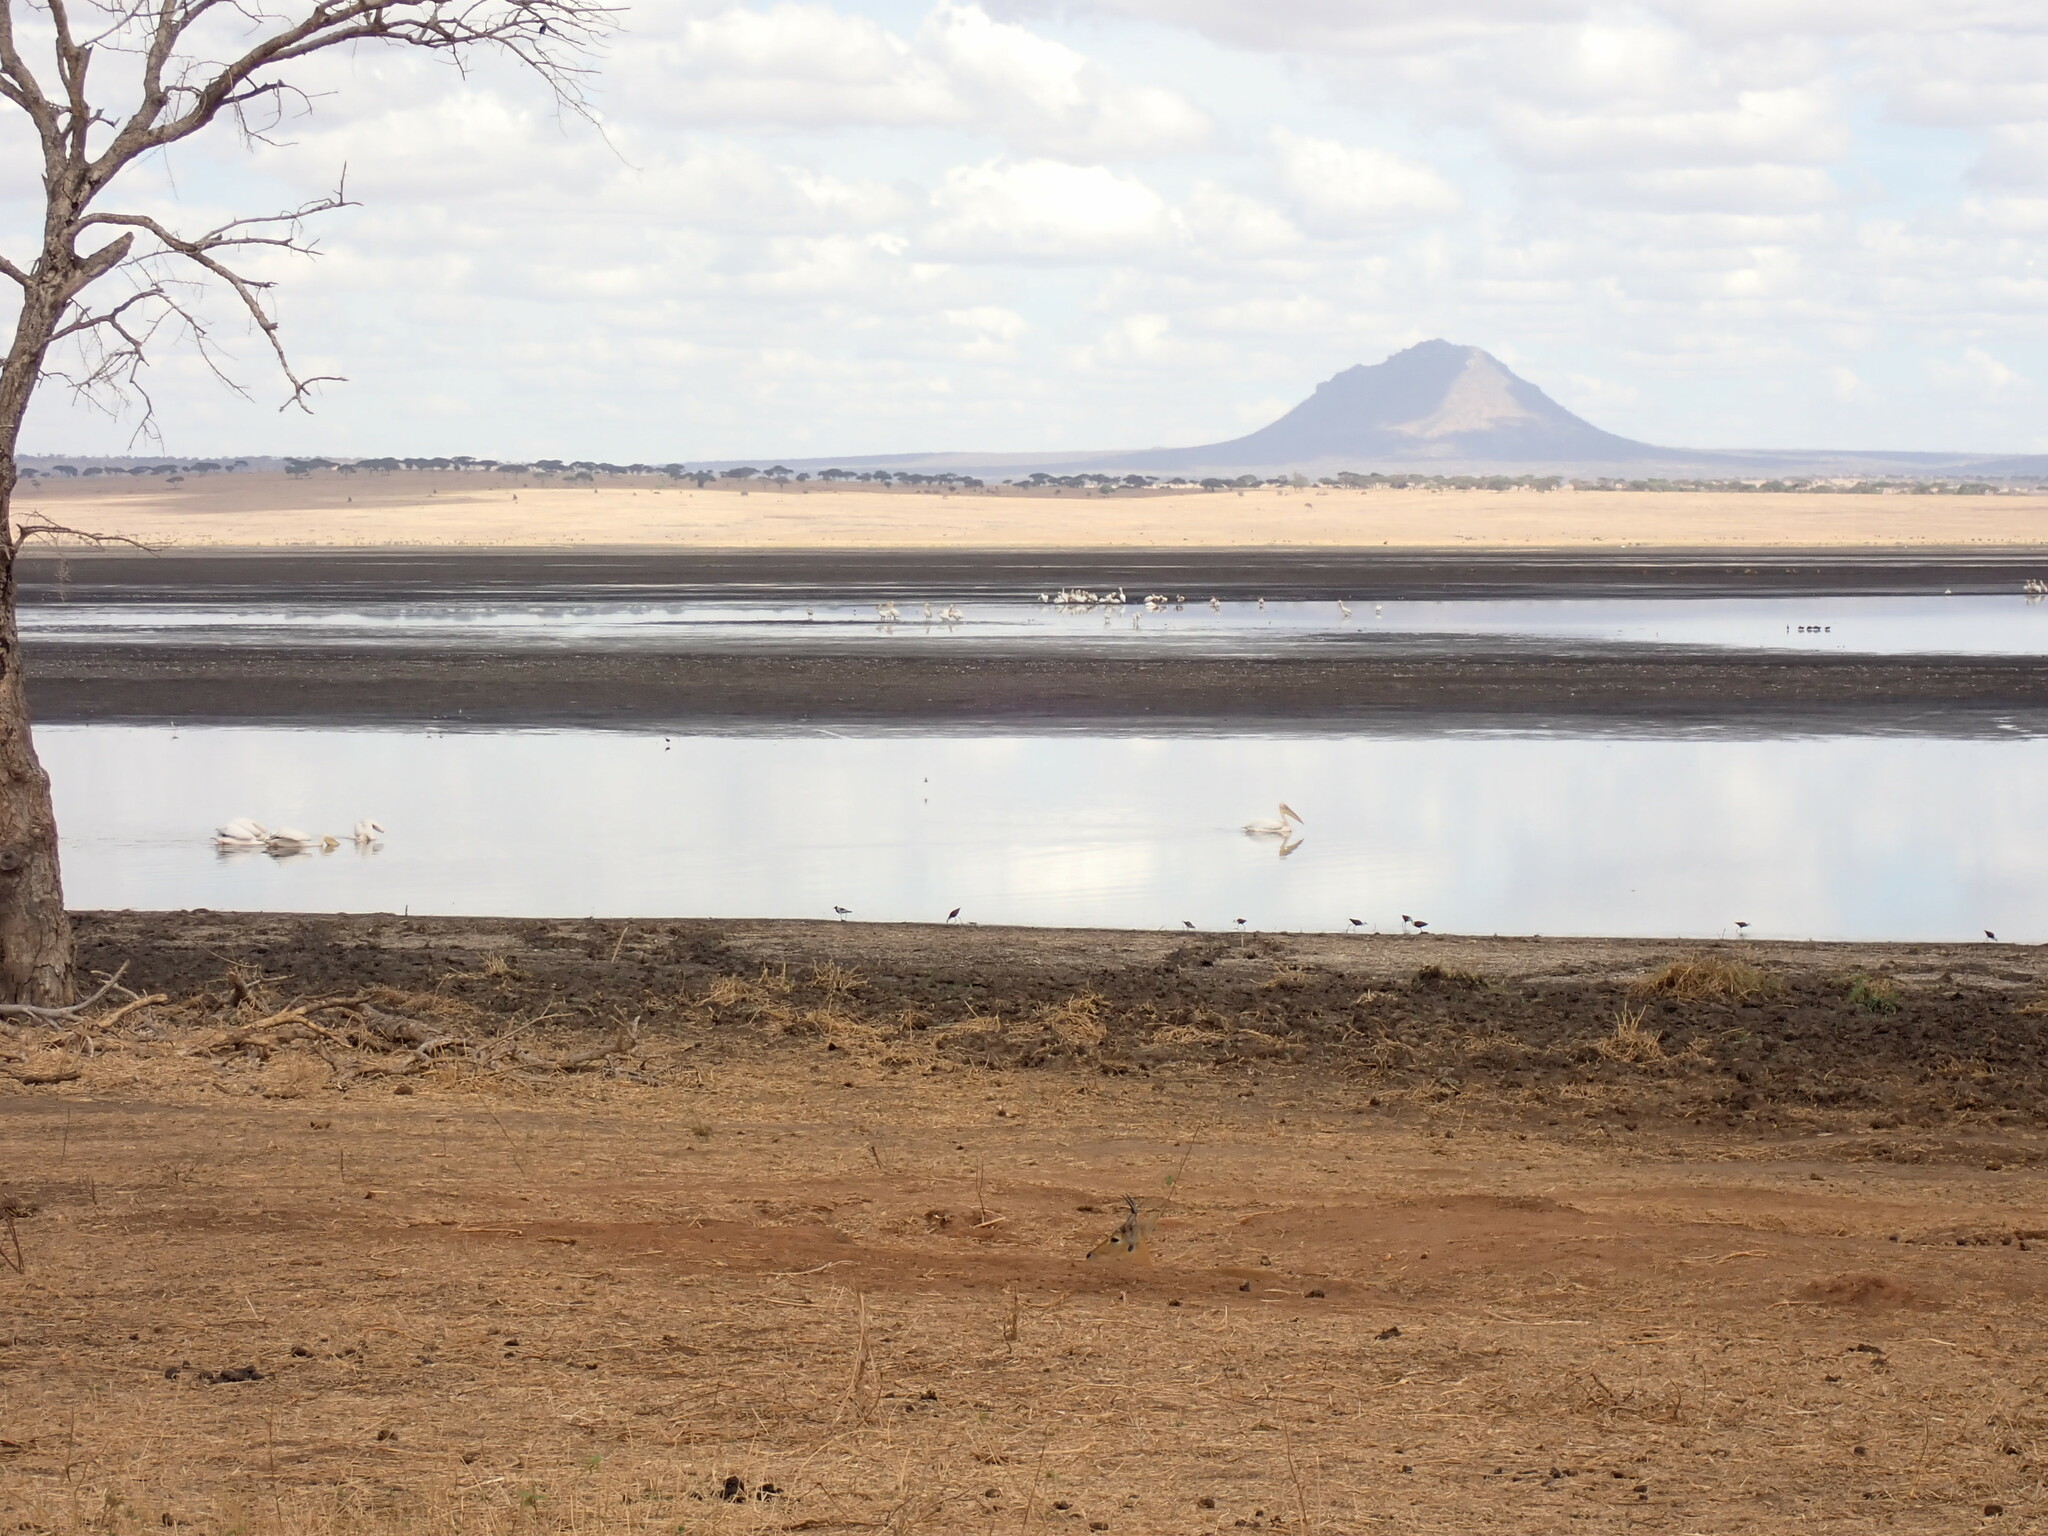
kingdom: Animalia
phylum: Chordata
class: Aves
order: Charadriiformes
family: Jacanidae
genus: Actophilornis
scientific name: Actophilornis africanus
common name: African jacana
